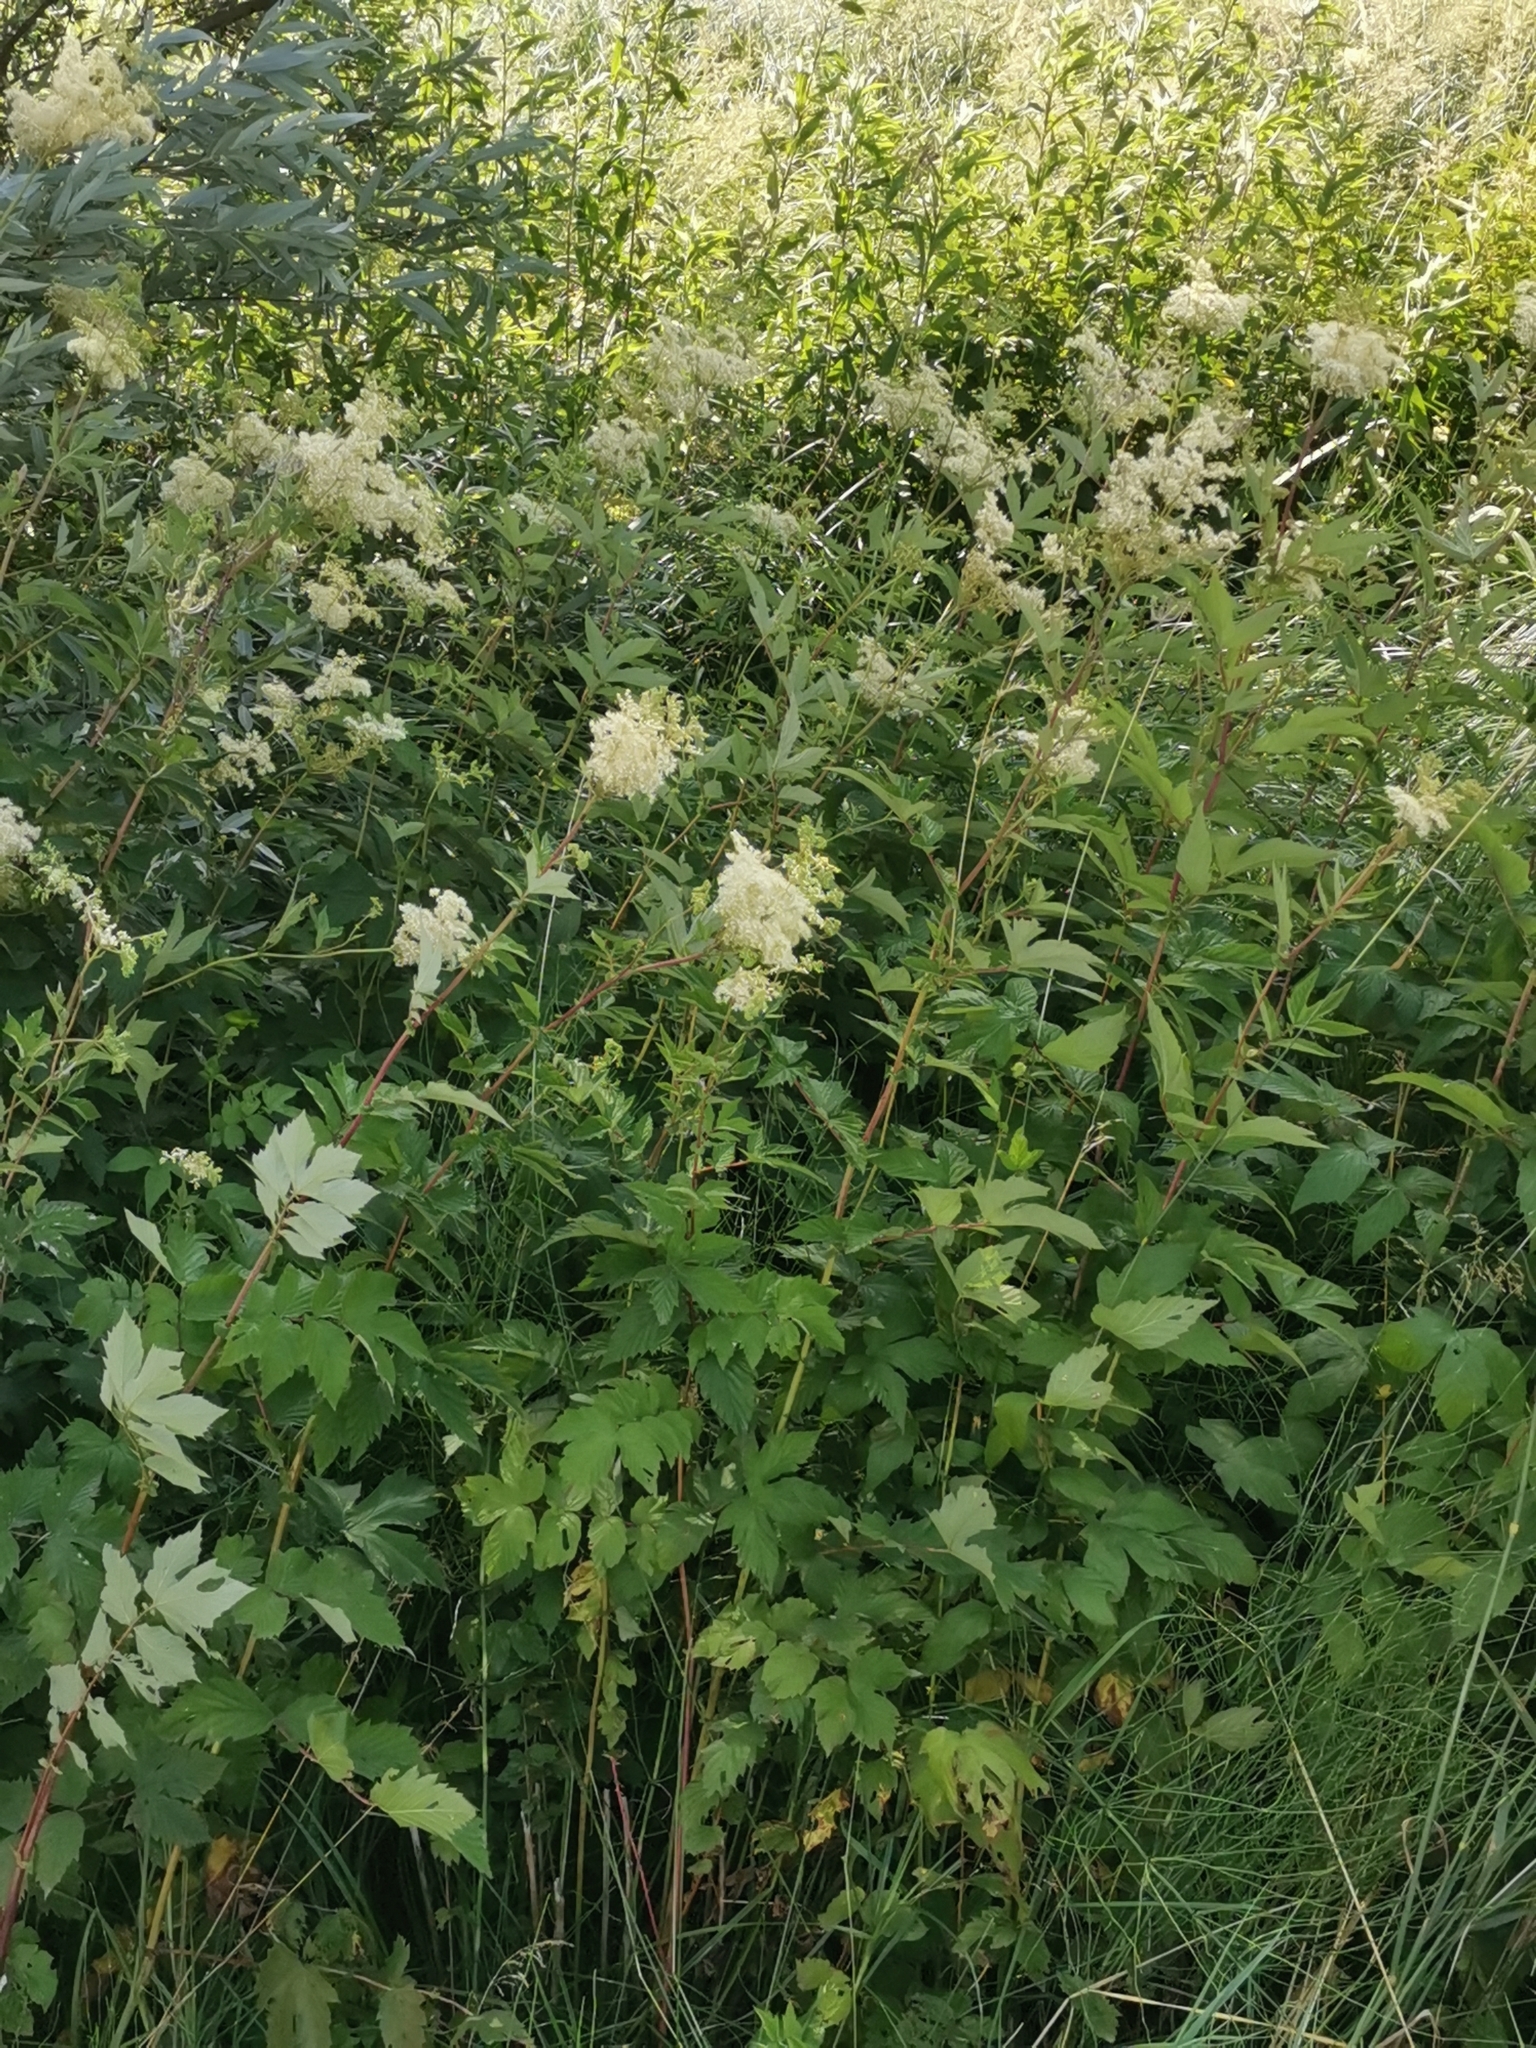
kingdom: Plantae
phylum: Tracheophyta
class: Magnoliopsida
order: Rosales
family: Rosaceae
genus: Filipendula
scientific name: Filipendula ulmaria
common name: Meadowsweet
